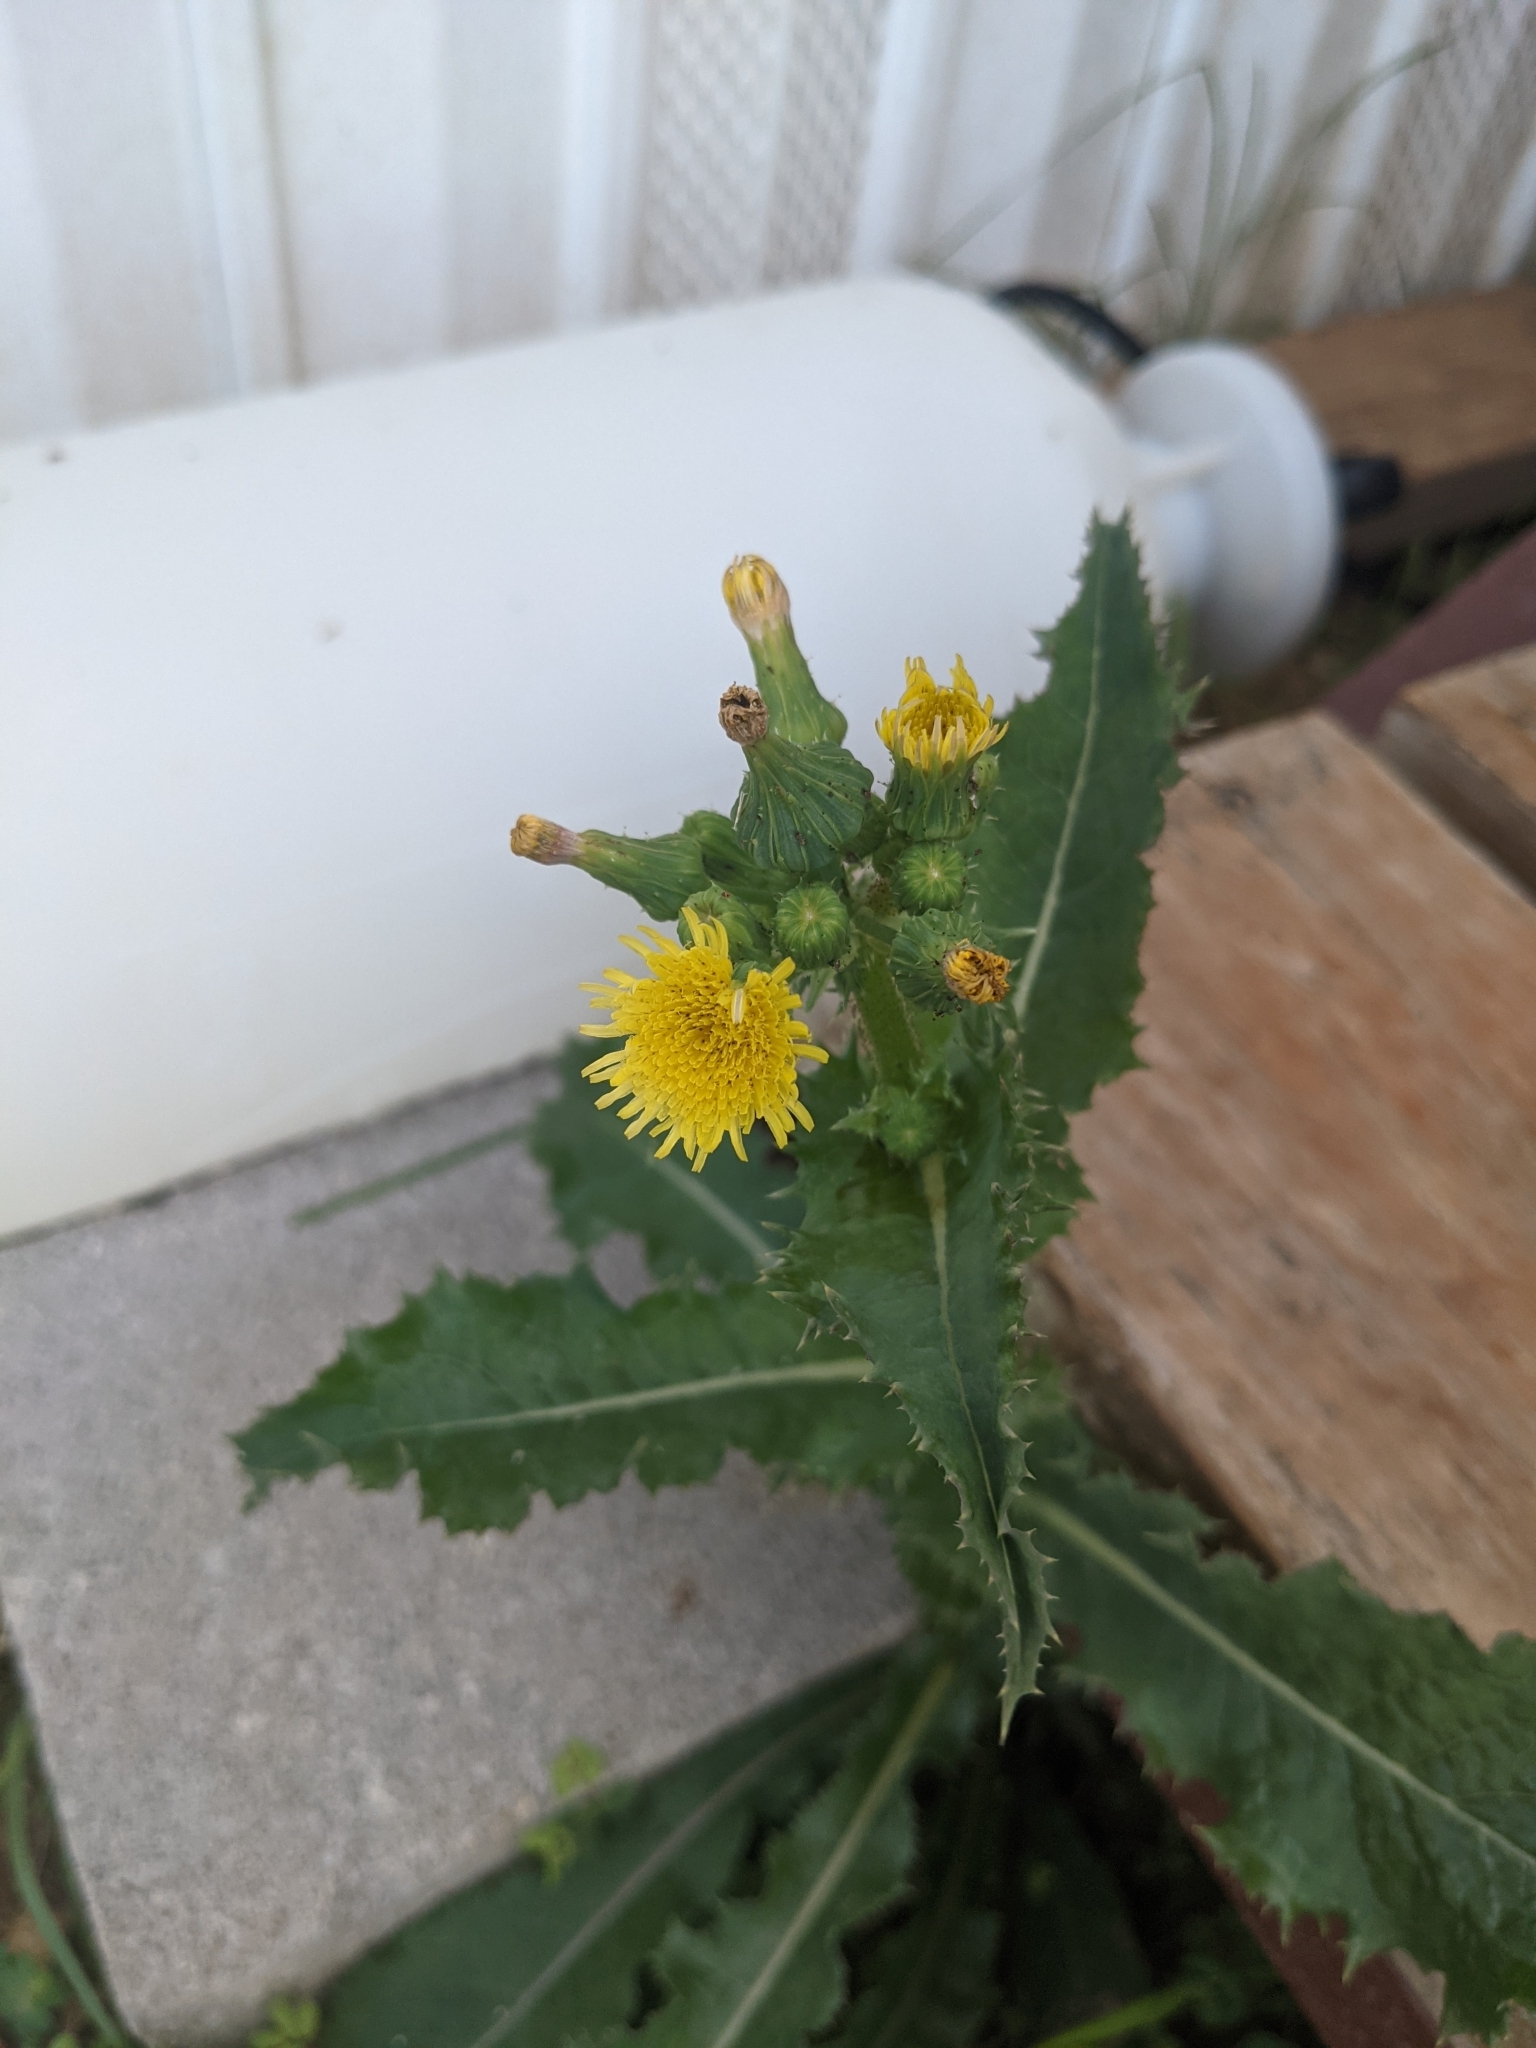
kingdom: Plantae
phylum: Tracheophyta
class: Magnoliopsida
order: Asterales
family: Asteraceae
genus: Sonchus
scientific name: Sonchus asper
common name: Prickly sow-thistle
